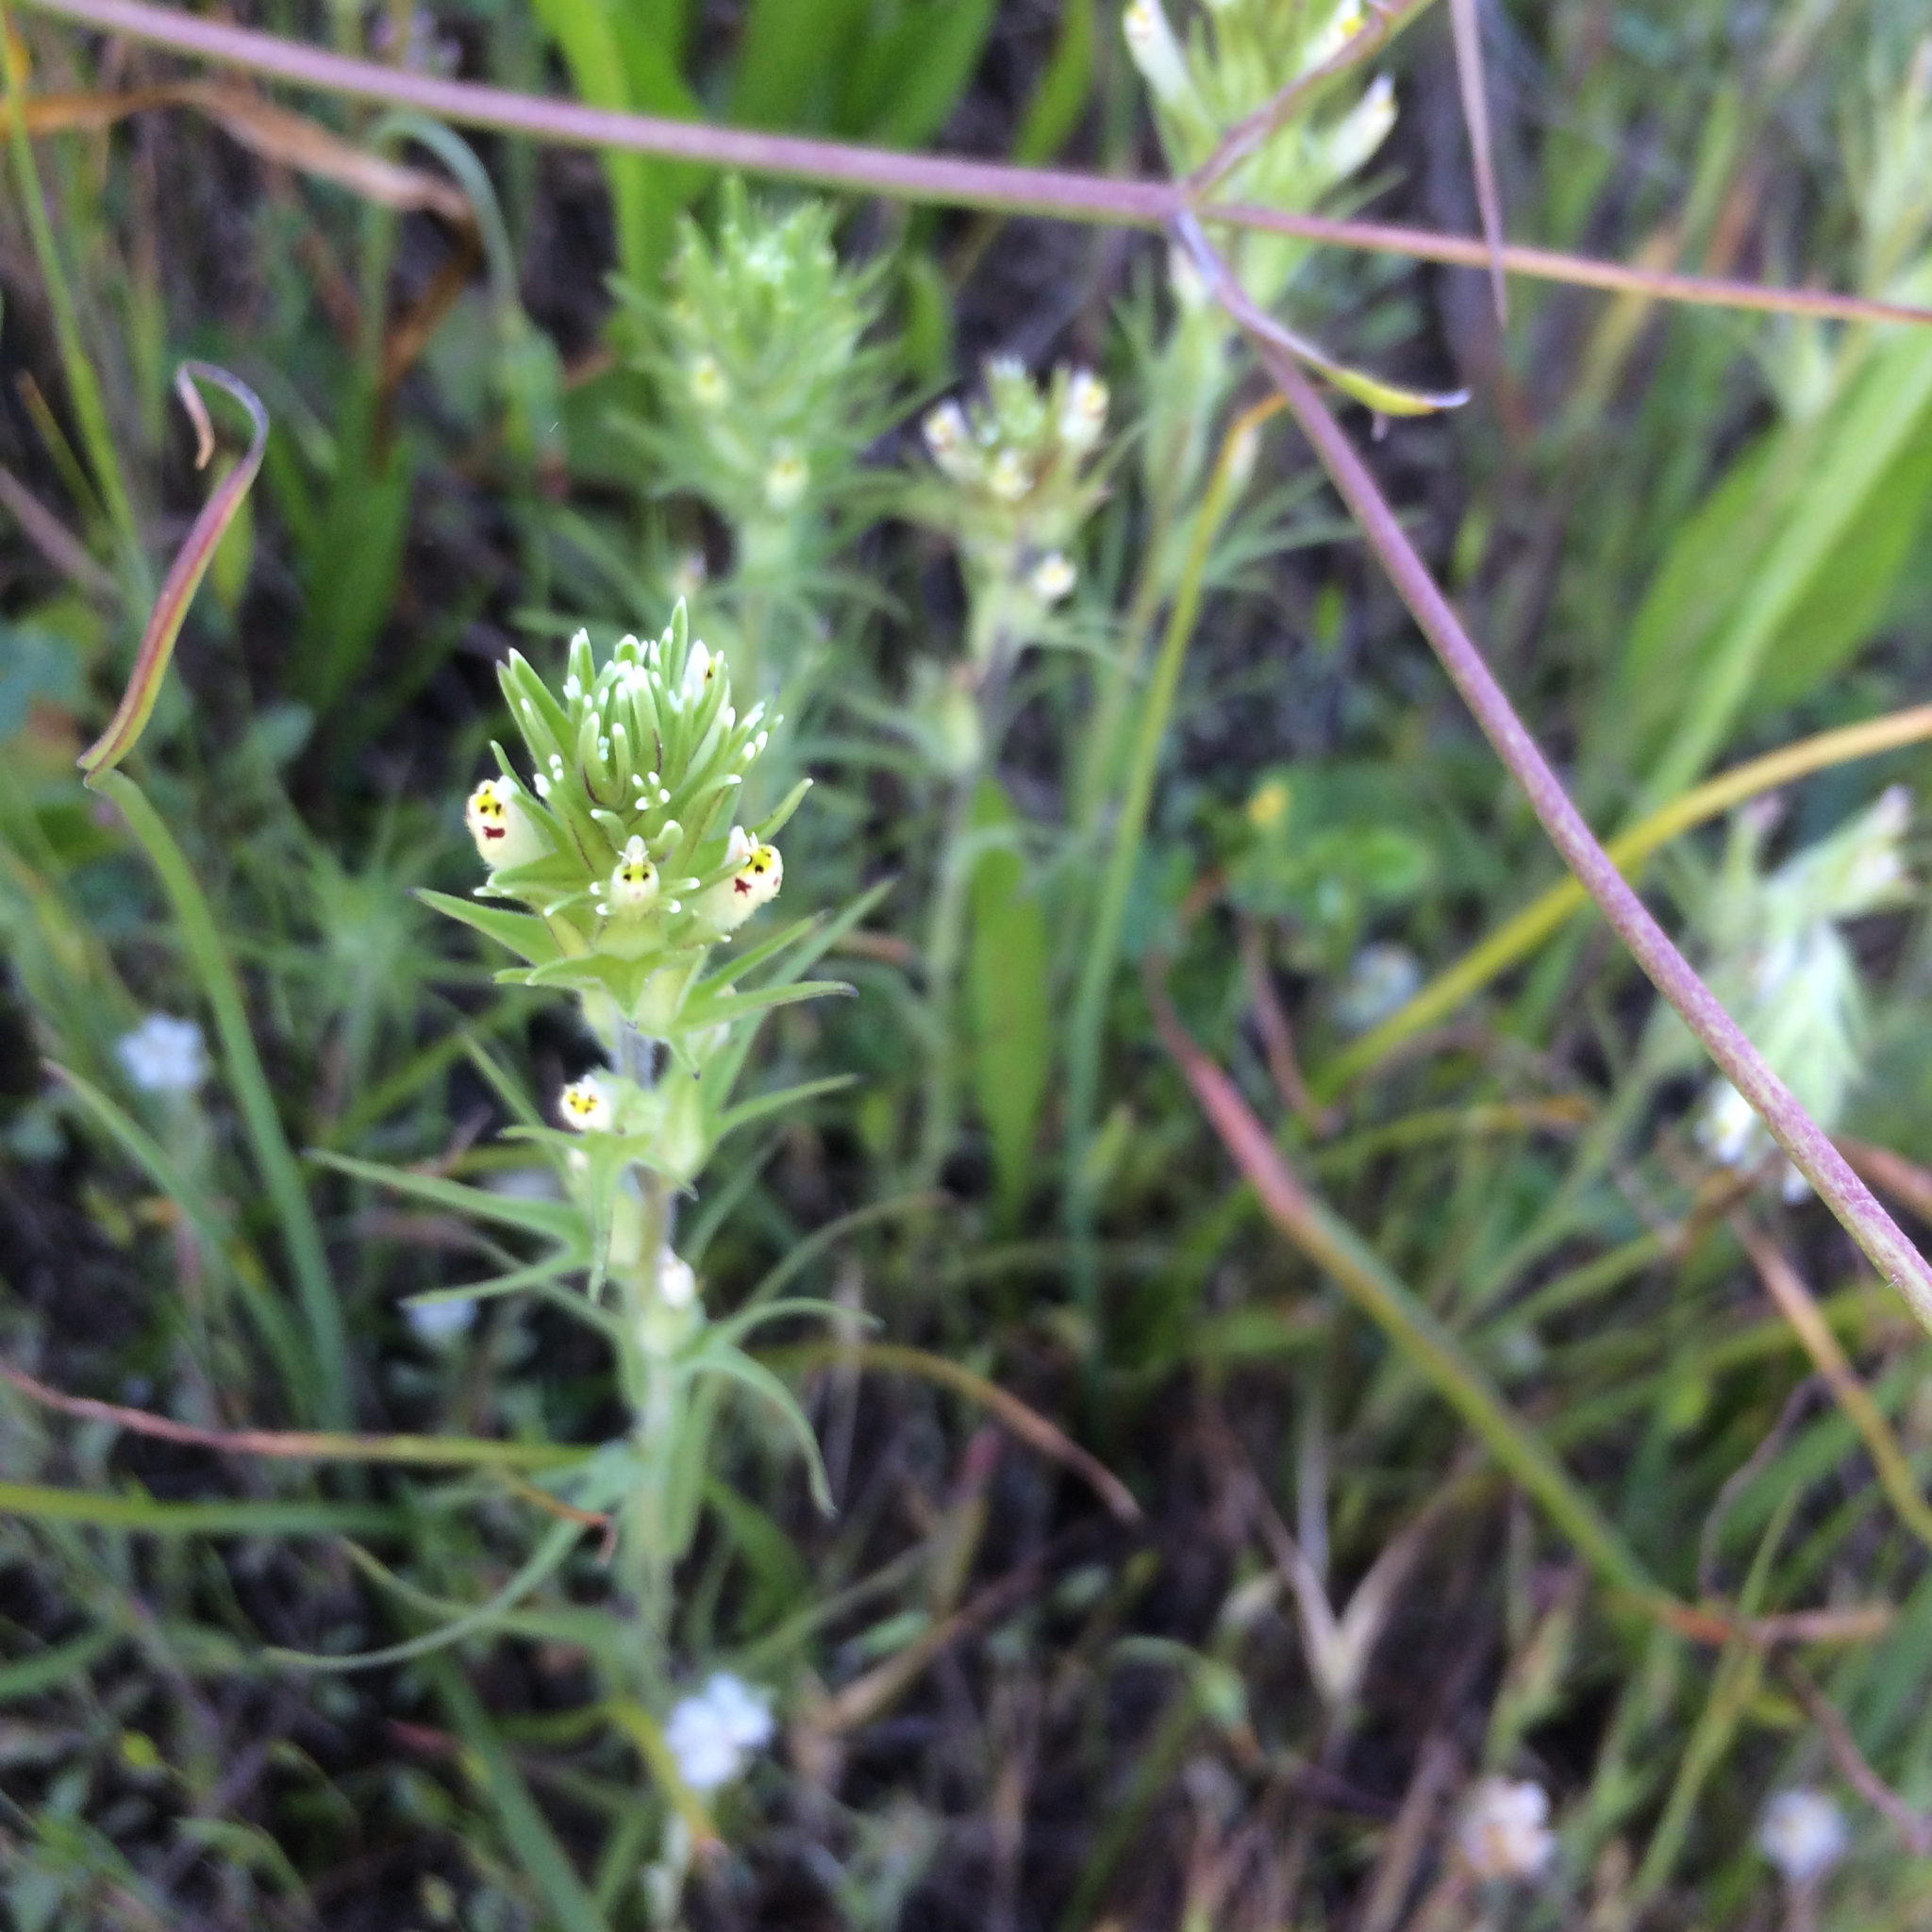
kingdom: Plantae
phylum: Tracheophyta
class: Magnoliopsida
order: Lamiales
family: Orobanchaceae
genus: Castilleja
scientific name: Castilleja attenuata
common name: Valley tassels
